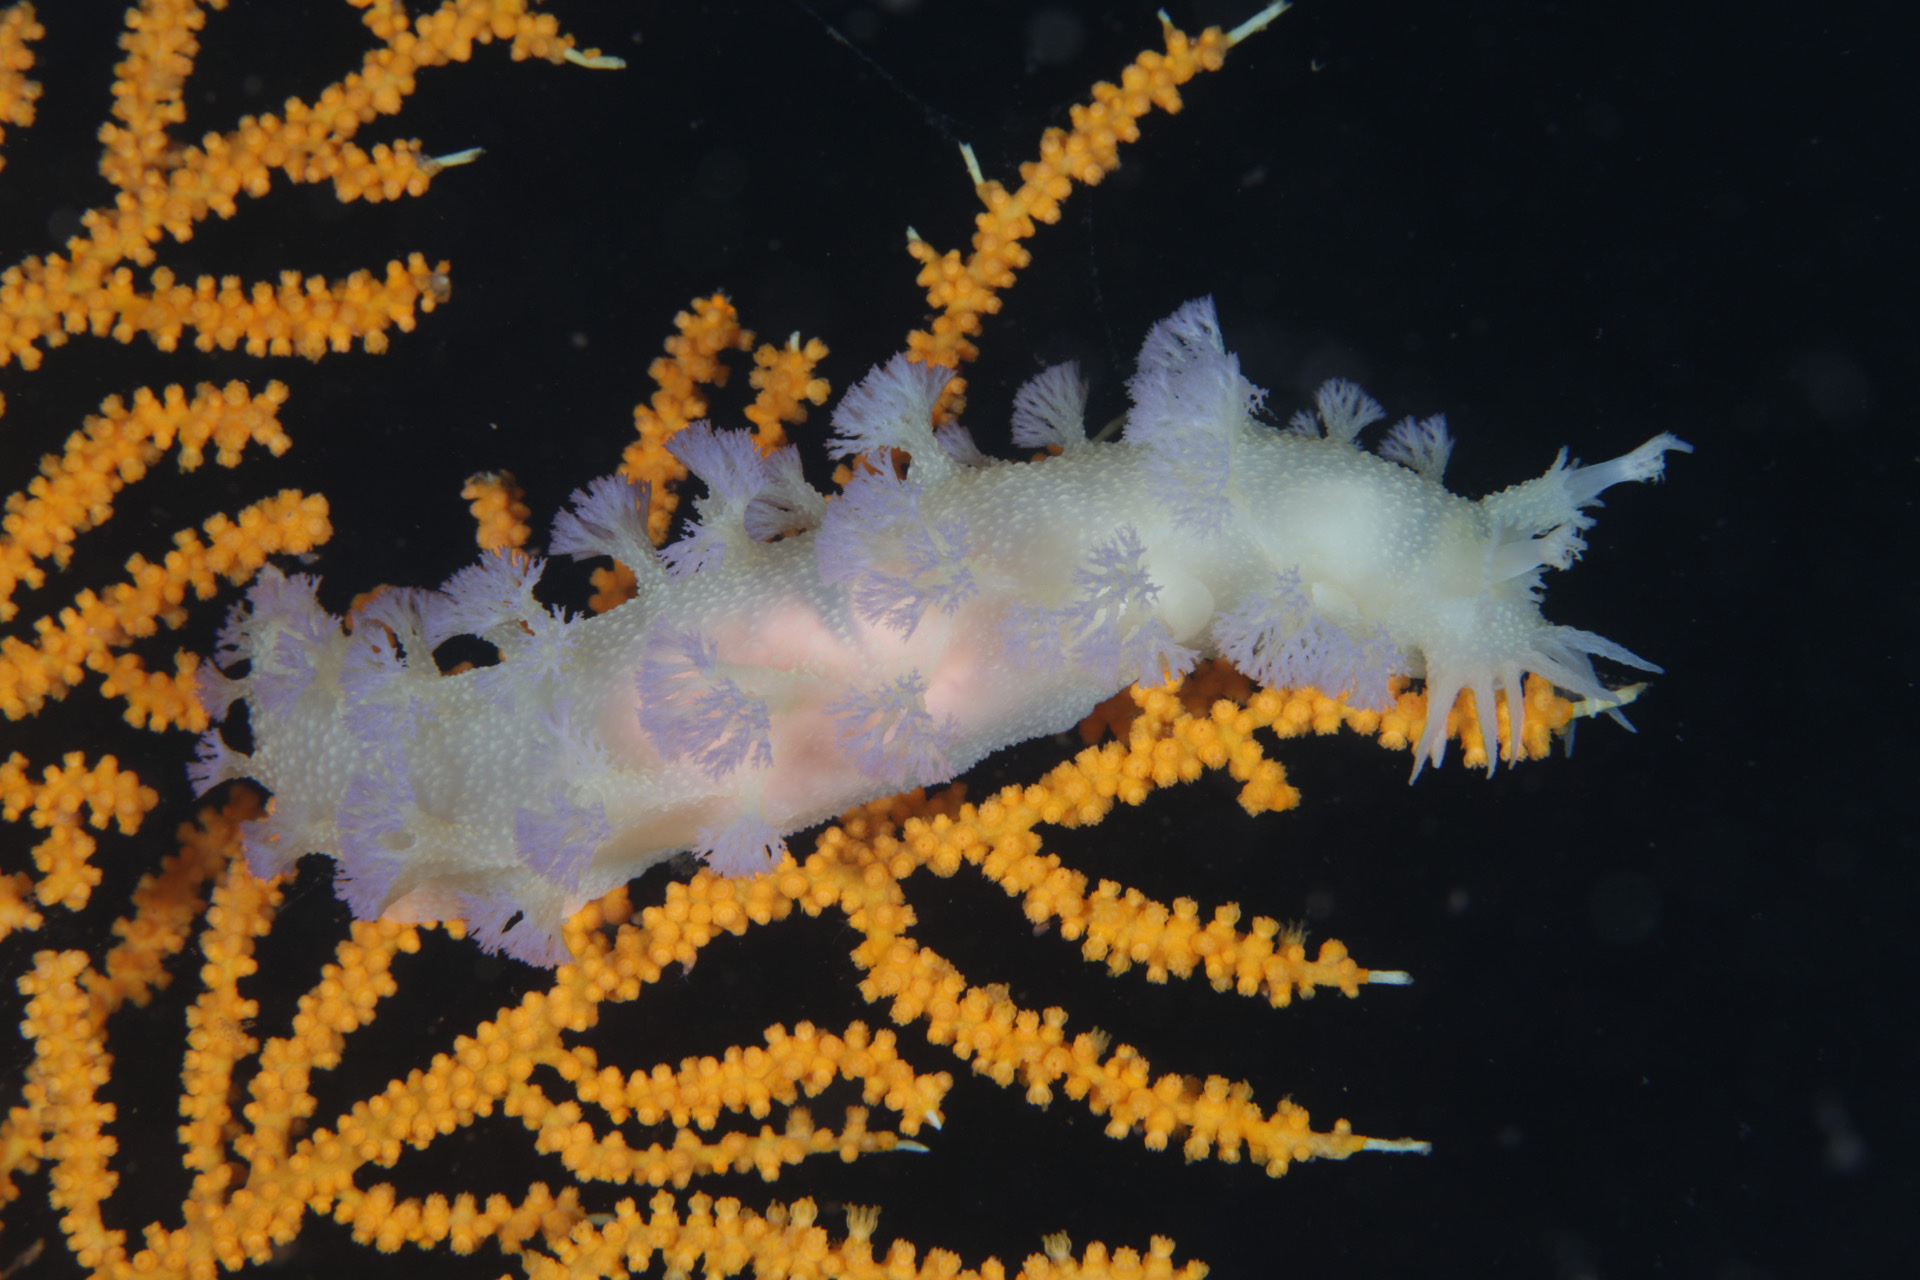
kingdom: Animalia
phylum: Mollusca
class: Gastropoda
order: Nudibranchia
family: Tritoniidae
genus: Tritonia
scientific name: Tritonia griegi
